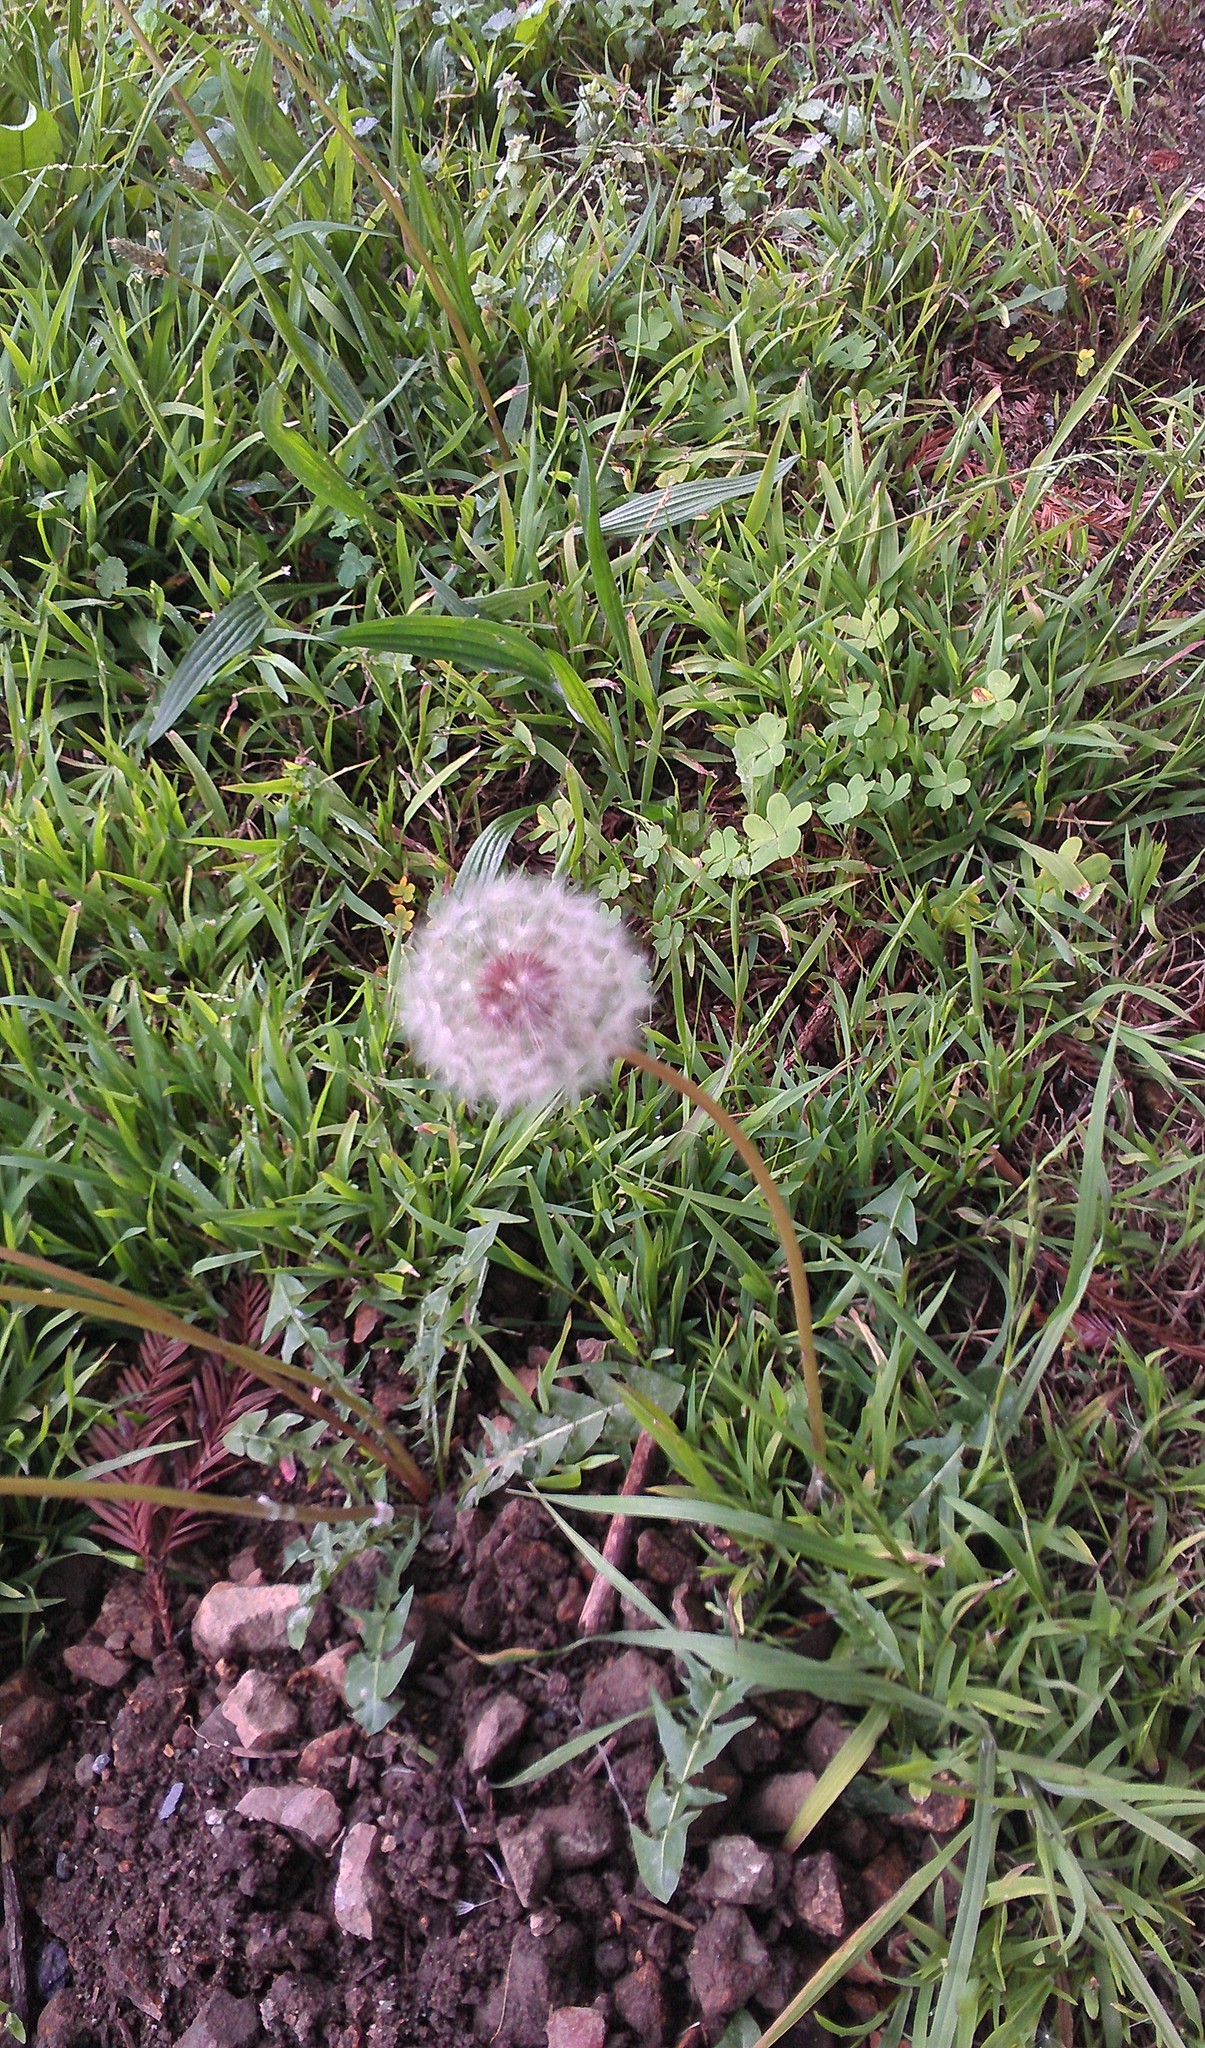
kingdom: Plantae
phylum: Tracheophyta
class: Magnoliopsida
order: Asterales
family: Asteraceae
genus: Taraxacum
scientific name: Taraxacum officinale
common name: Common dandelion
